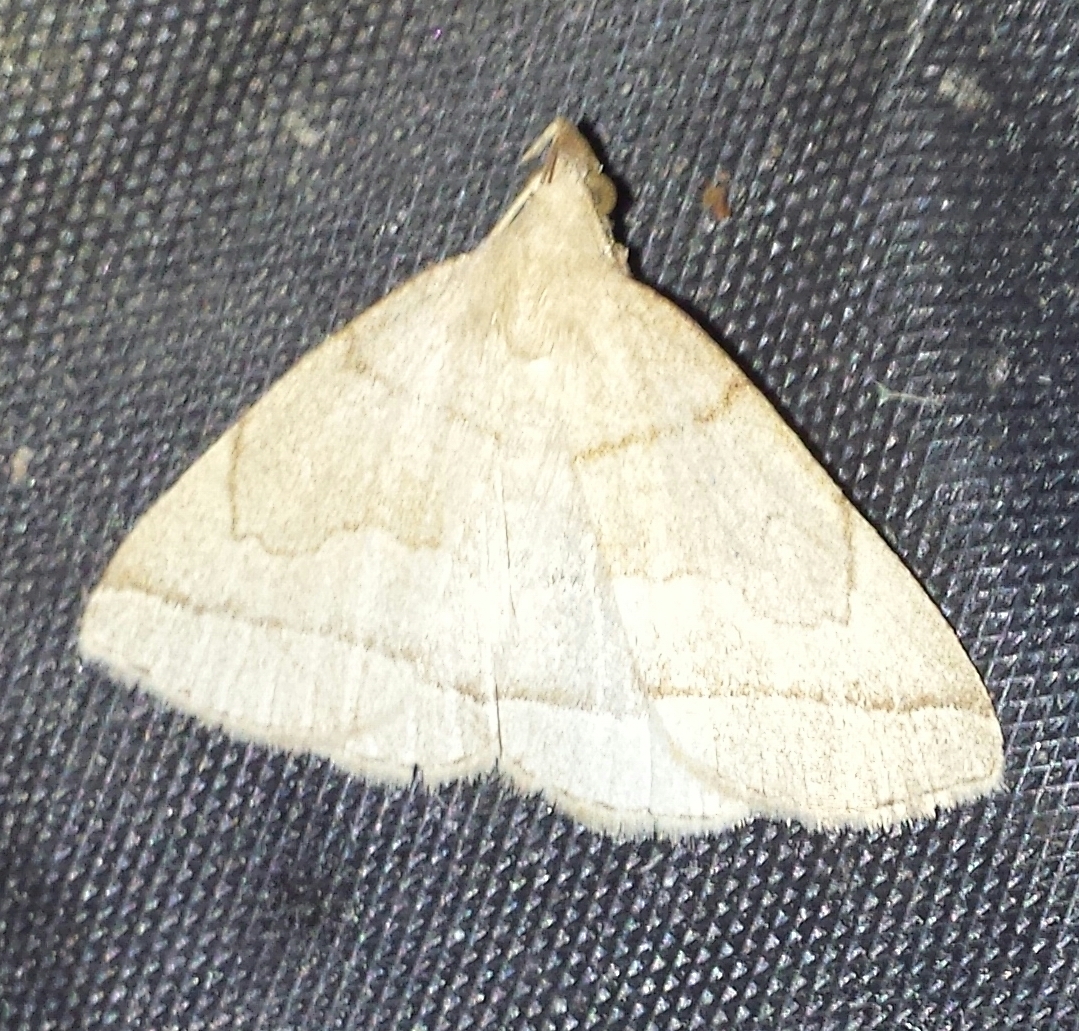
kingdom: Animalia
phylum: Arthropoda
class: Insecta
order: Lepidoptera
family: Erebidae
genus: Zanclognatha
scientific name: Zanclognatha cruralis
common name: Early fan-foot
